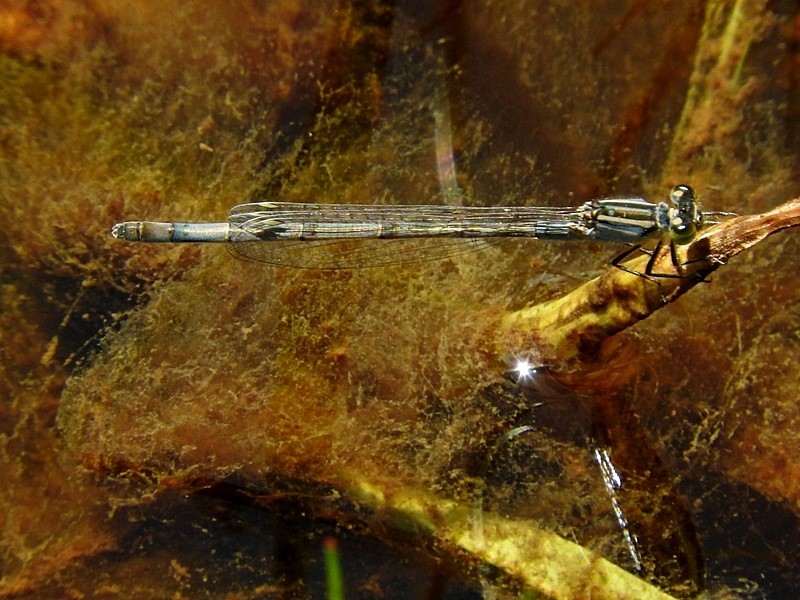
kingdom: Animalia
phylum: Arthropoda
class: Insecta
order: Odonata
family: Coenagrionidae
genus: Ischnura
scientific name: Ischnura heterosticta
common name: Common bluetail
